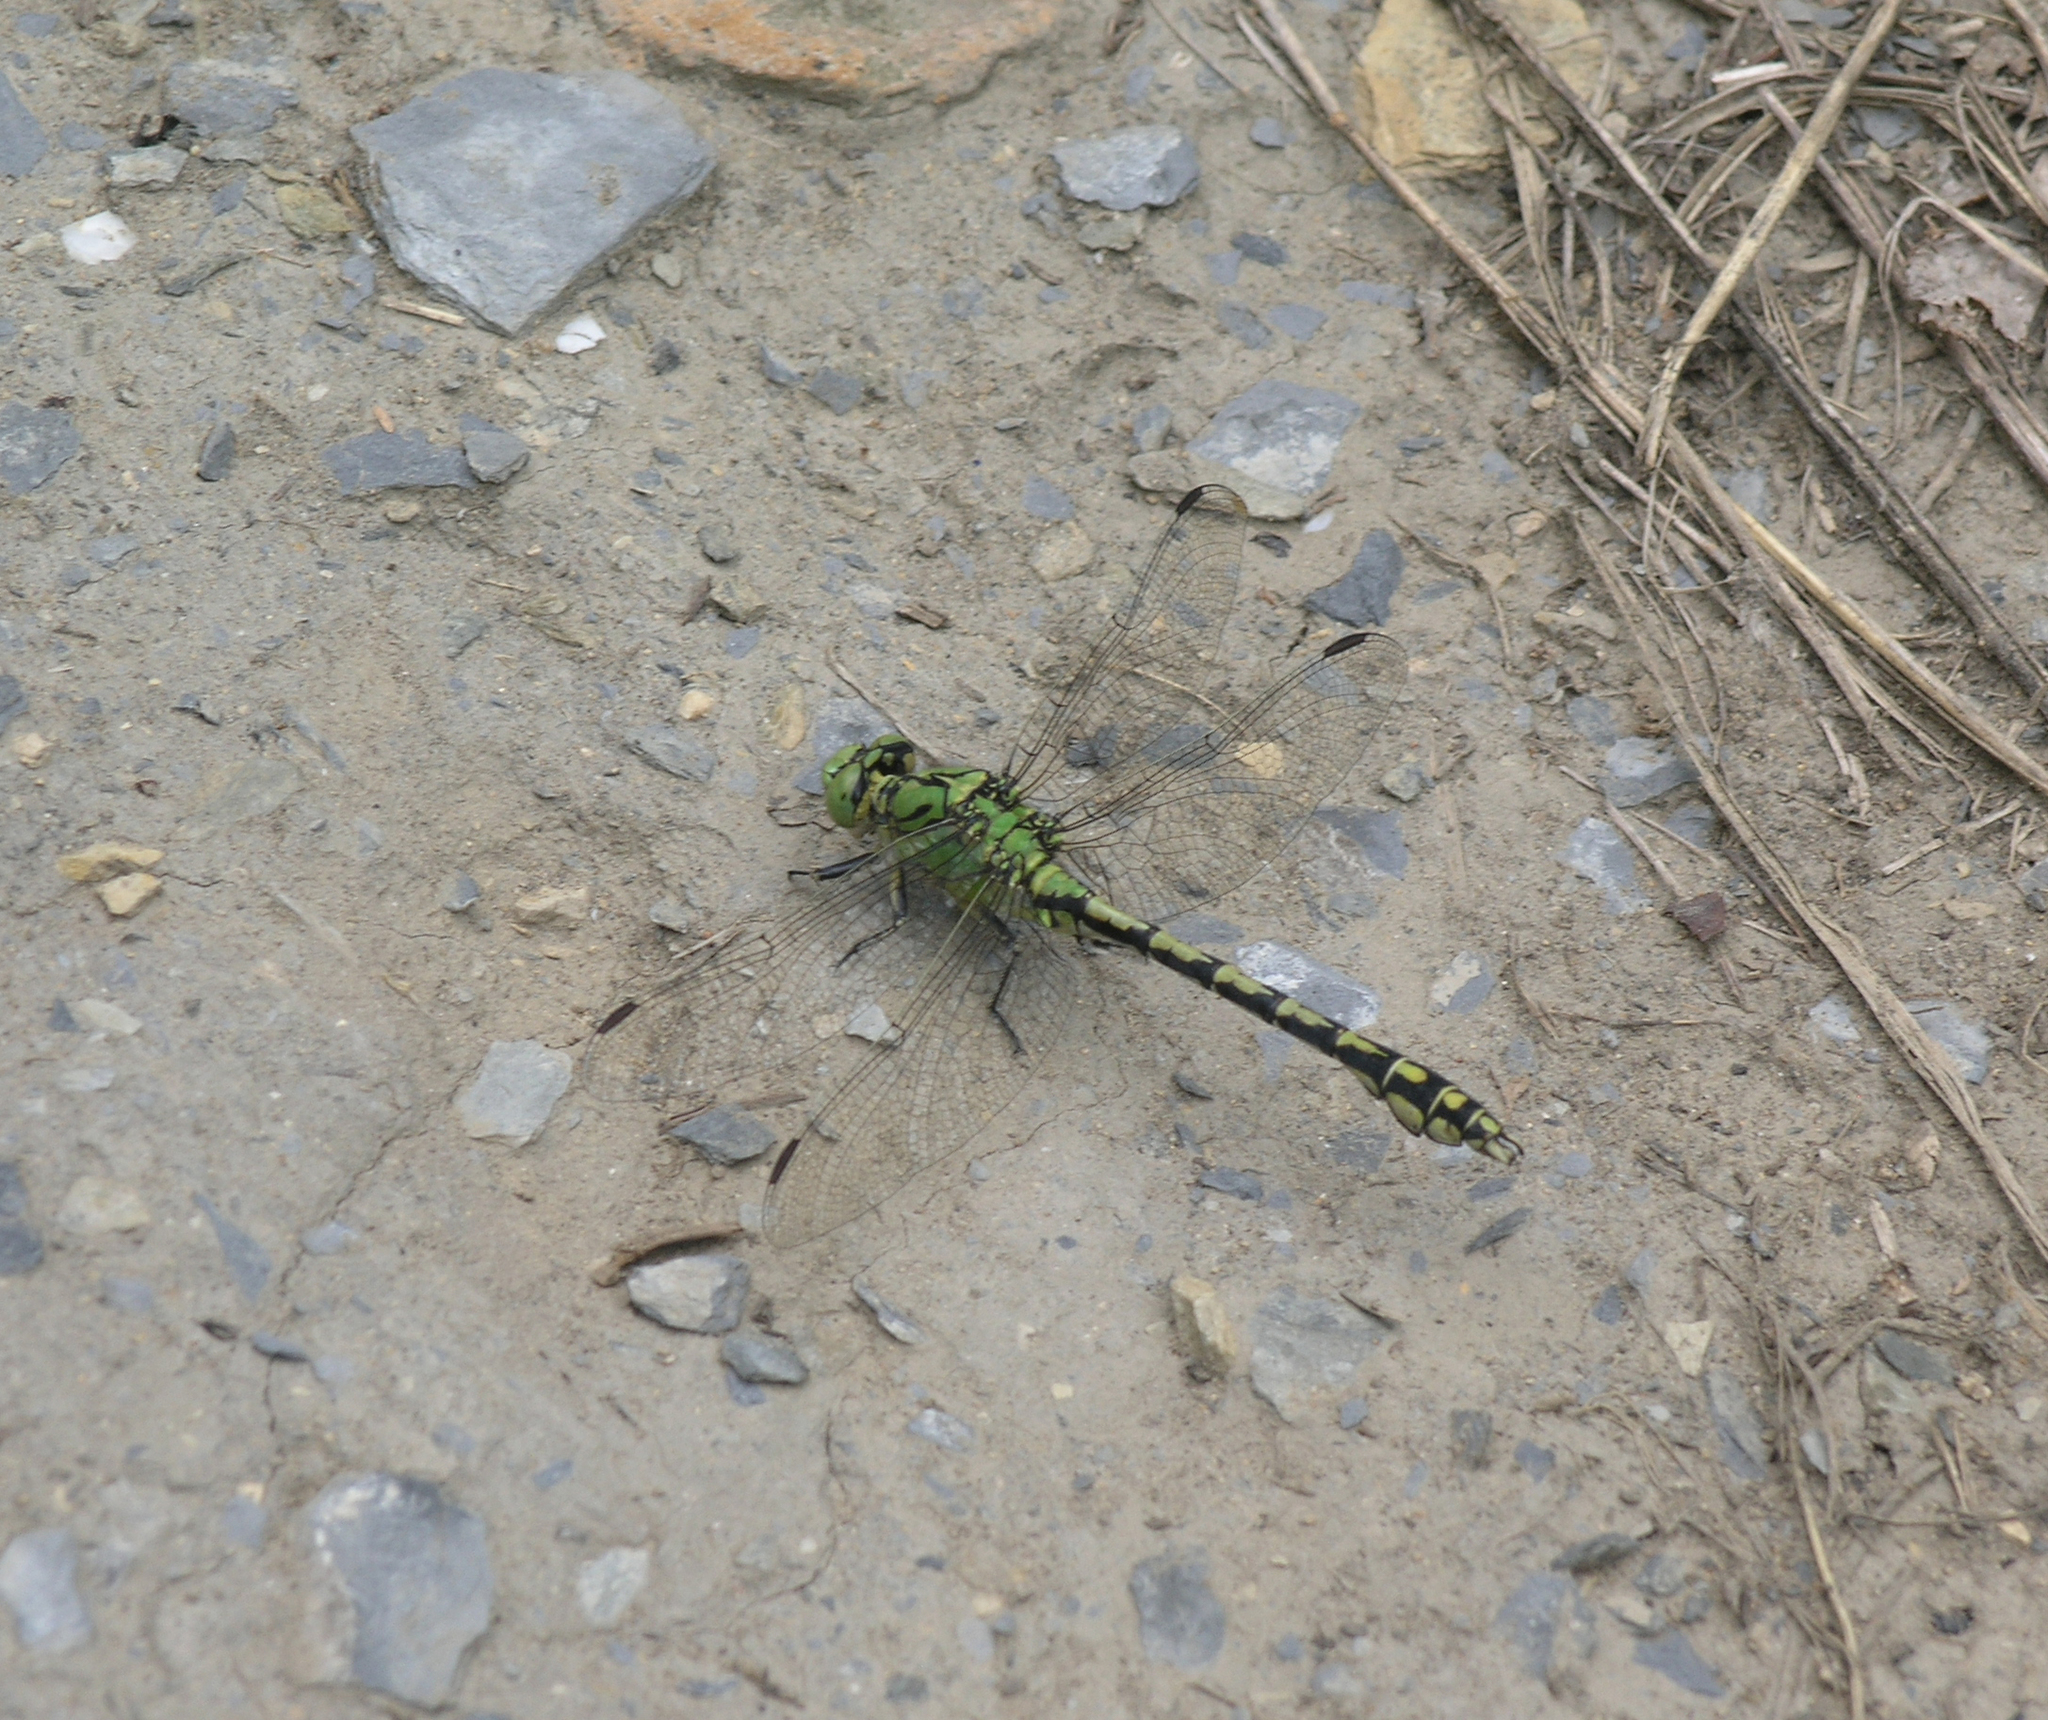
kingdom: Animalia
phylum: Arthropoda
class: Insecta
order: Odonata
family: Gomphidae
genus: Ophiogomphus
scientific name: Ophiogomphus cecilia
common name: Green snaketail
